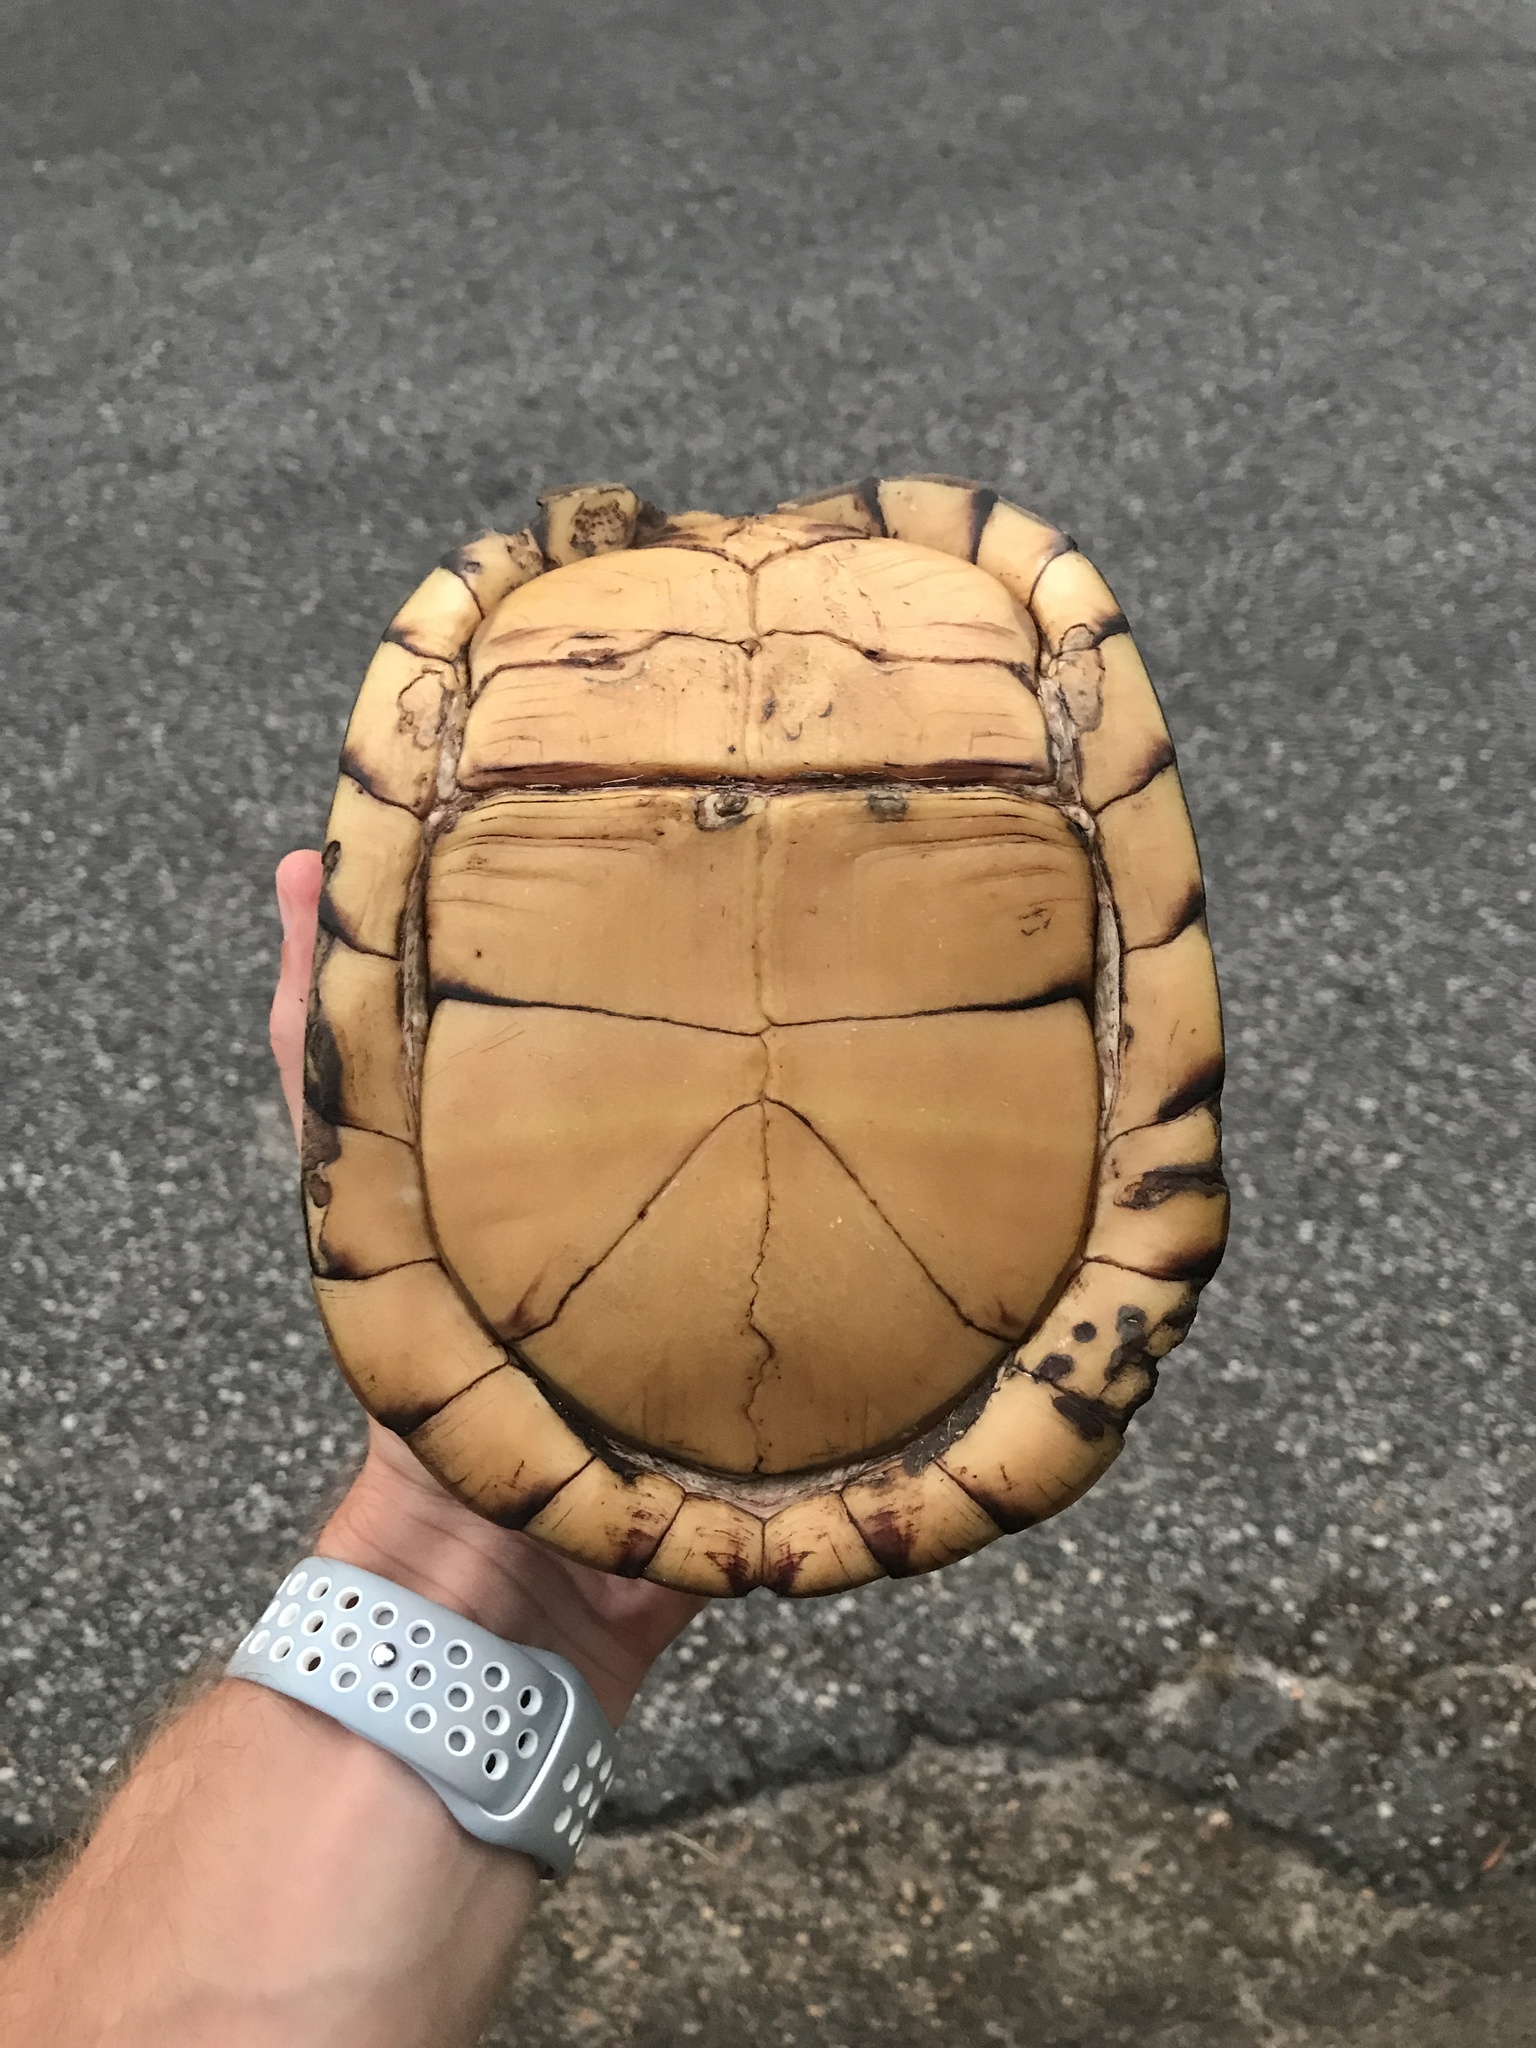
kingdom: Animalia
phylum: Chordata
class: Testudines
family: Emydidae
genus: Terrapene
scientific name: Terrapene carolina
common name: Common box turtle
